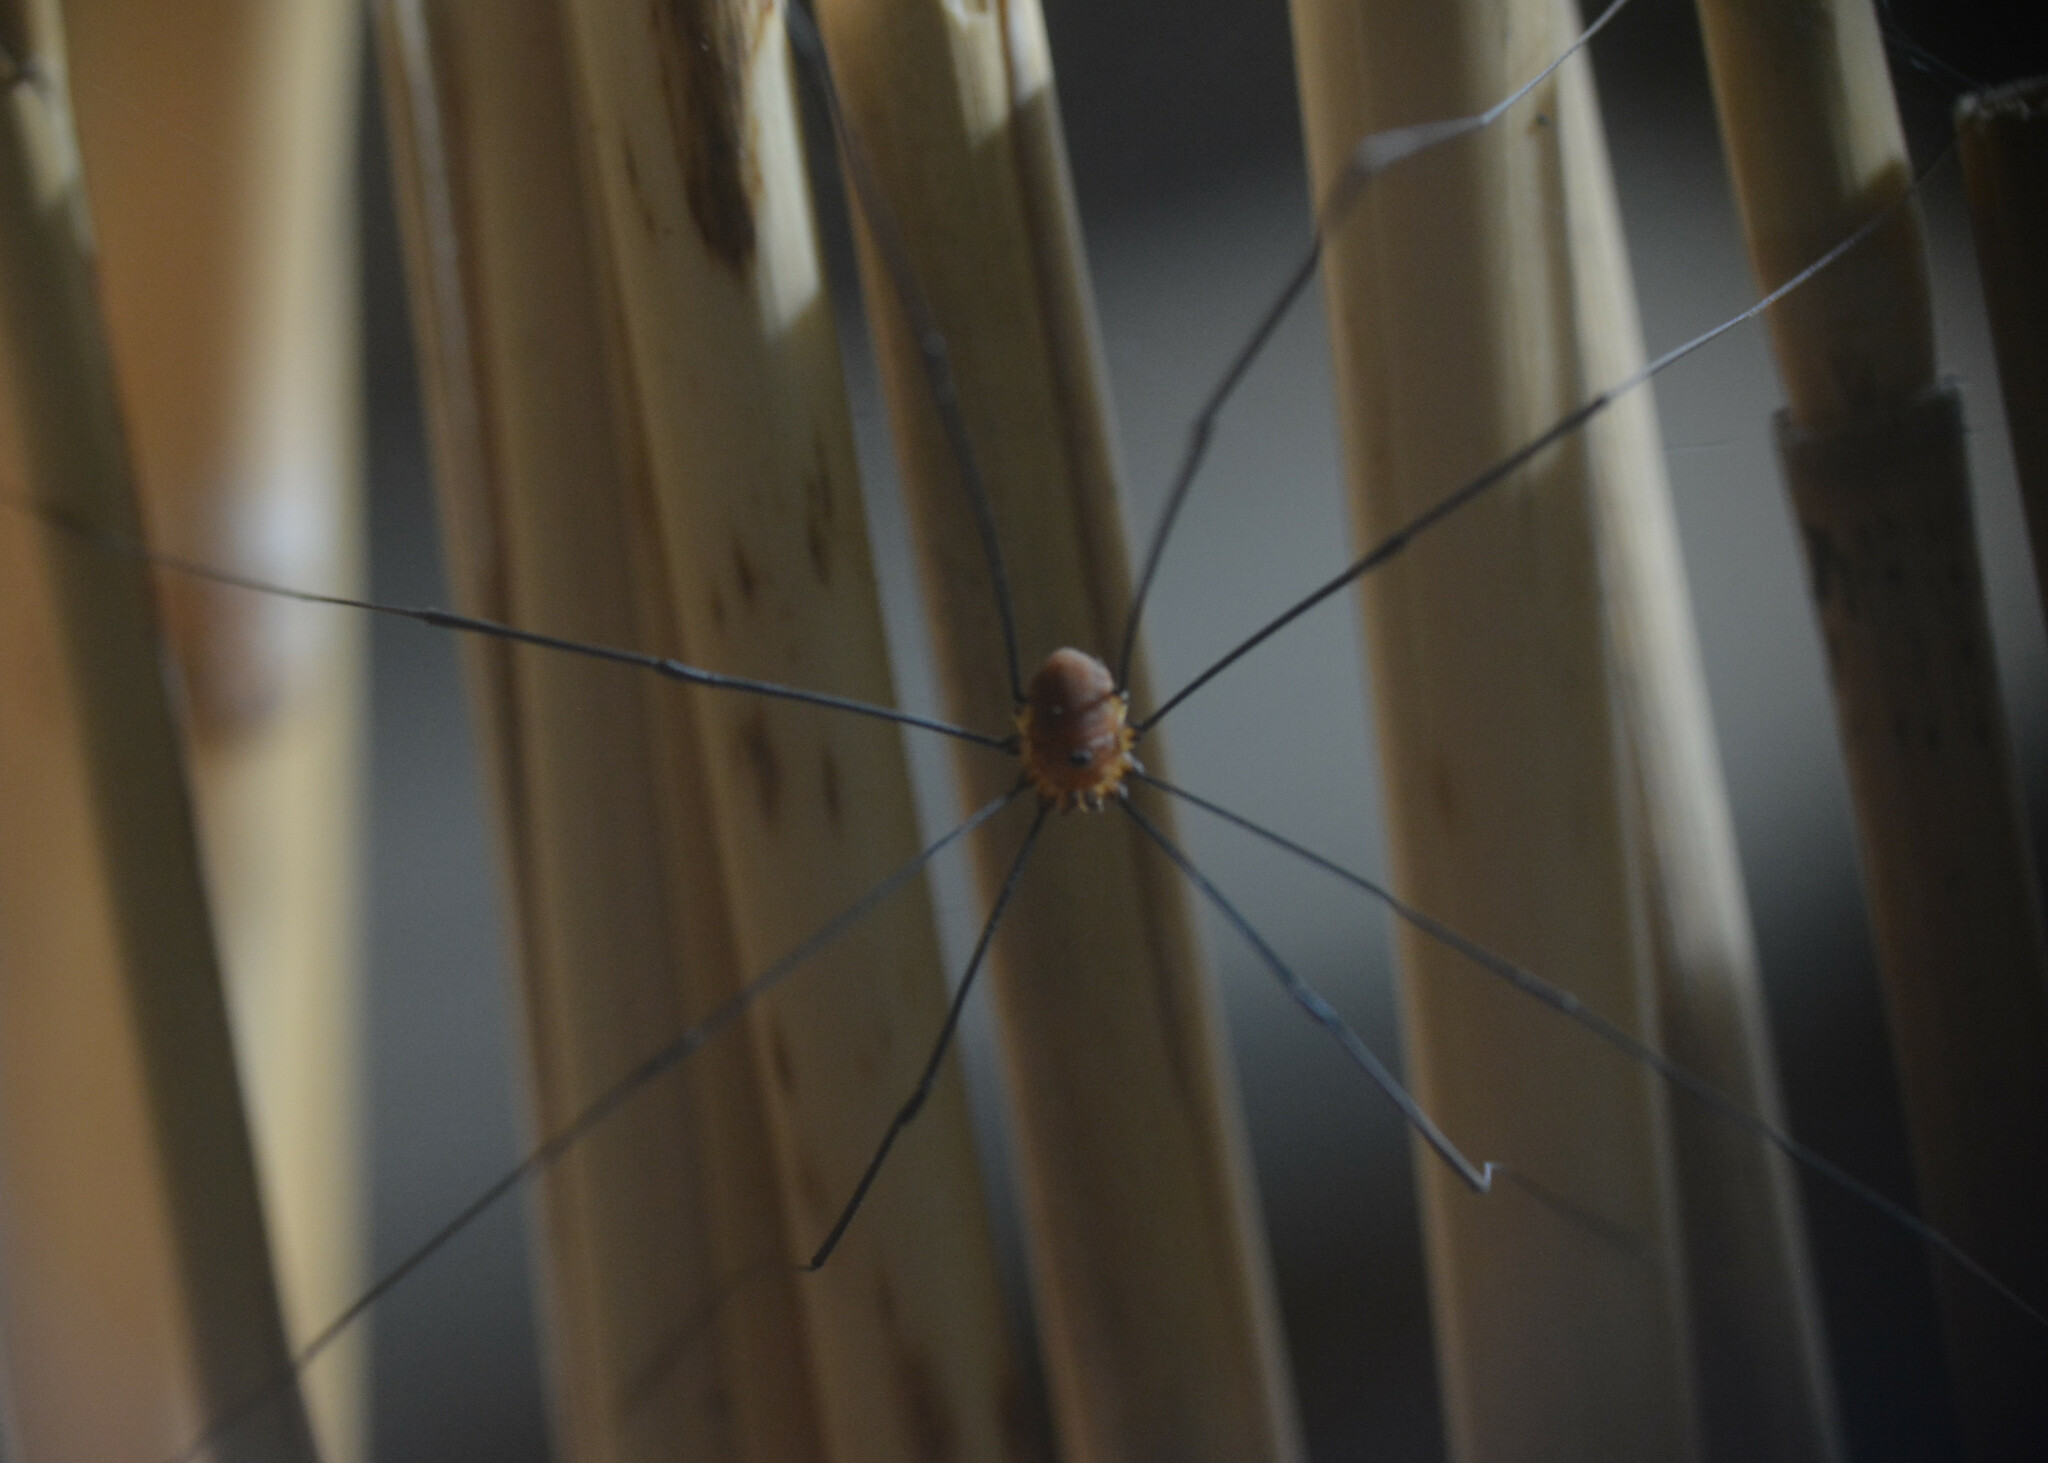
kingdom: Animalia
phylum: Arthropoda
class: Arachnida
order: Opiliones
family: Sclerosomatidae
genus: Leiobunum
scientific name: Leiobunum rotundum
